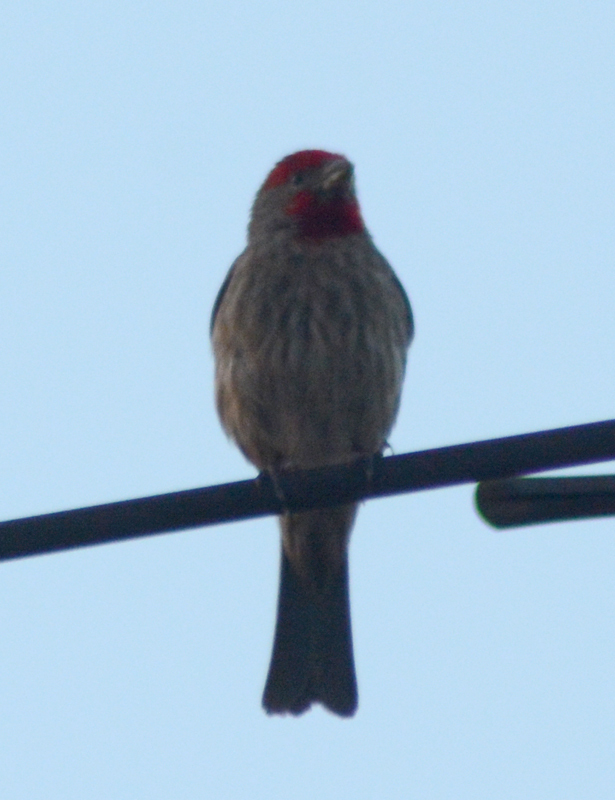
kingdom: Animalia
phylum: Chordata
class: Aves
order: Passeriformes
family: Fringillidae
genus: Haemorhous
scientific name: Haemorhous mexicanus
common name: House finch
